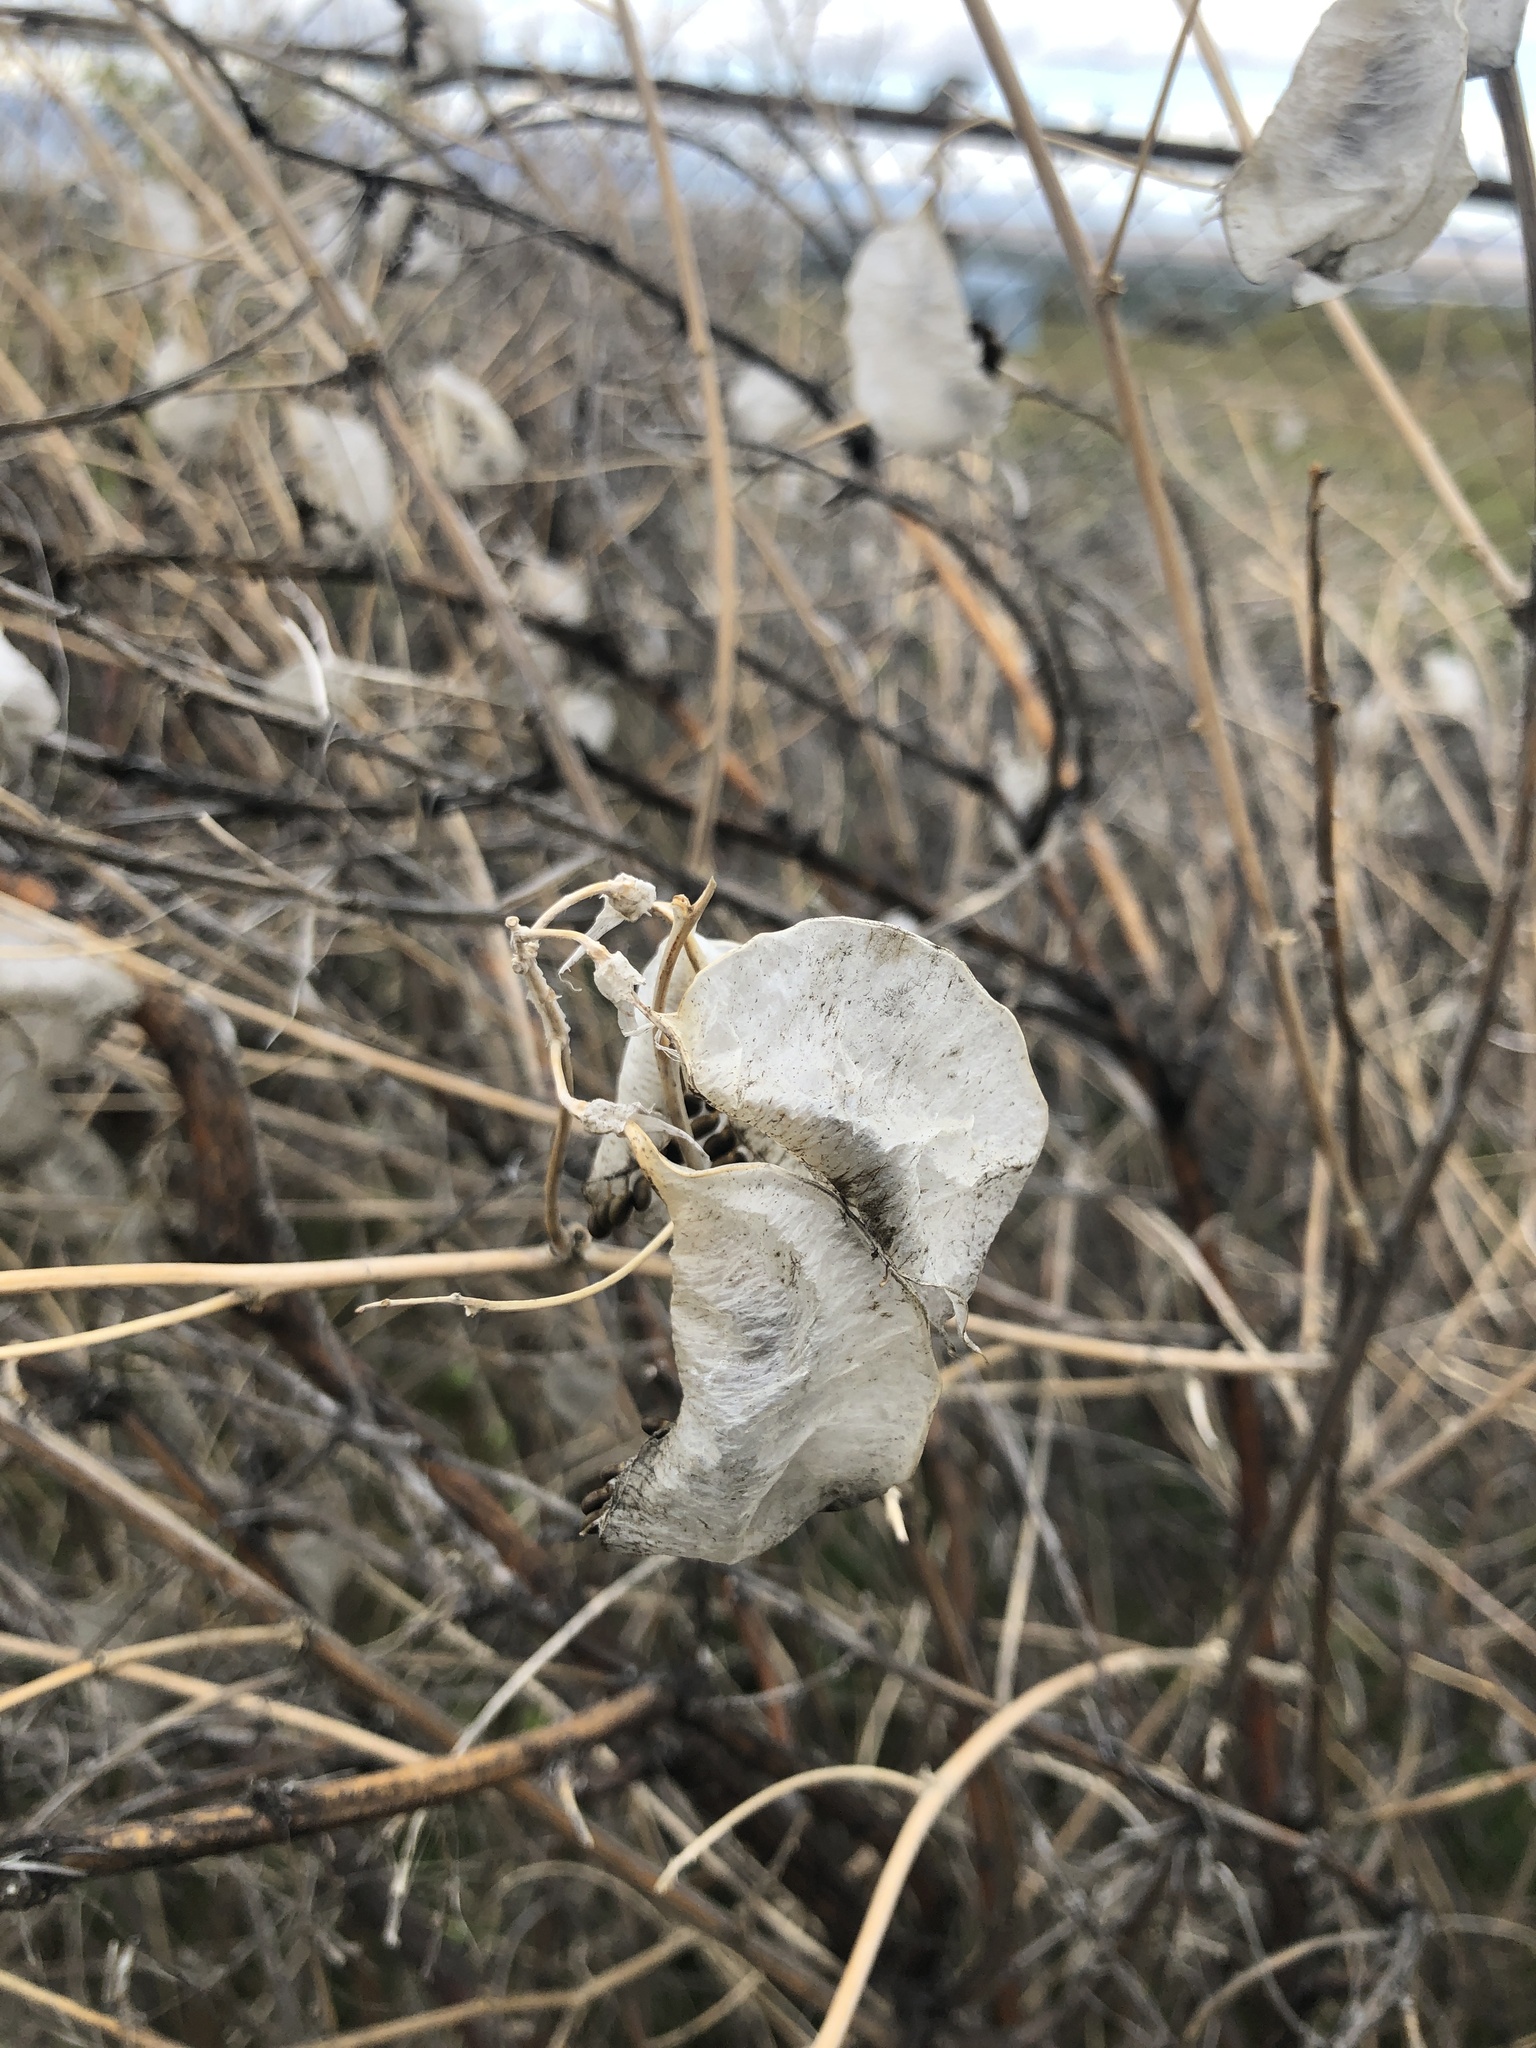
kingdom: Plantae
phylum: Tracheophyta
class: Magnoliopsida
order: Fabales
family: Fabaceae
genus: Colutea
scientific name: Colutea arborescens
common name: Bladder-senna
